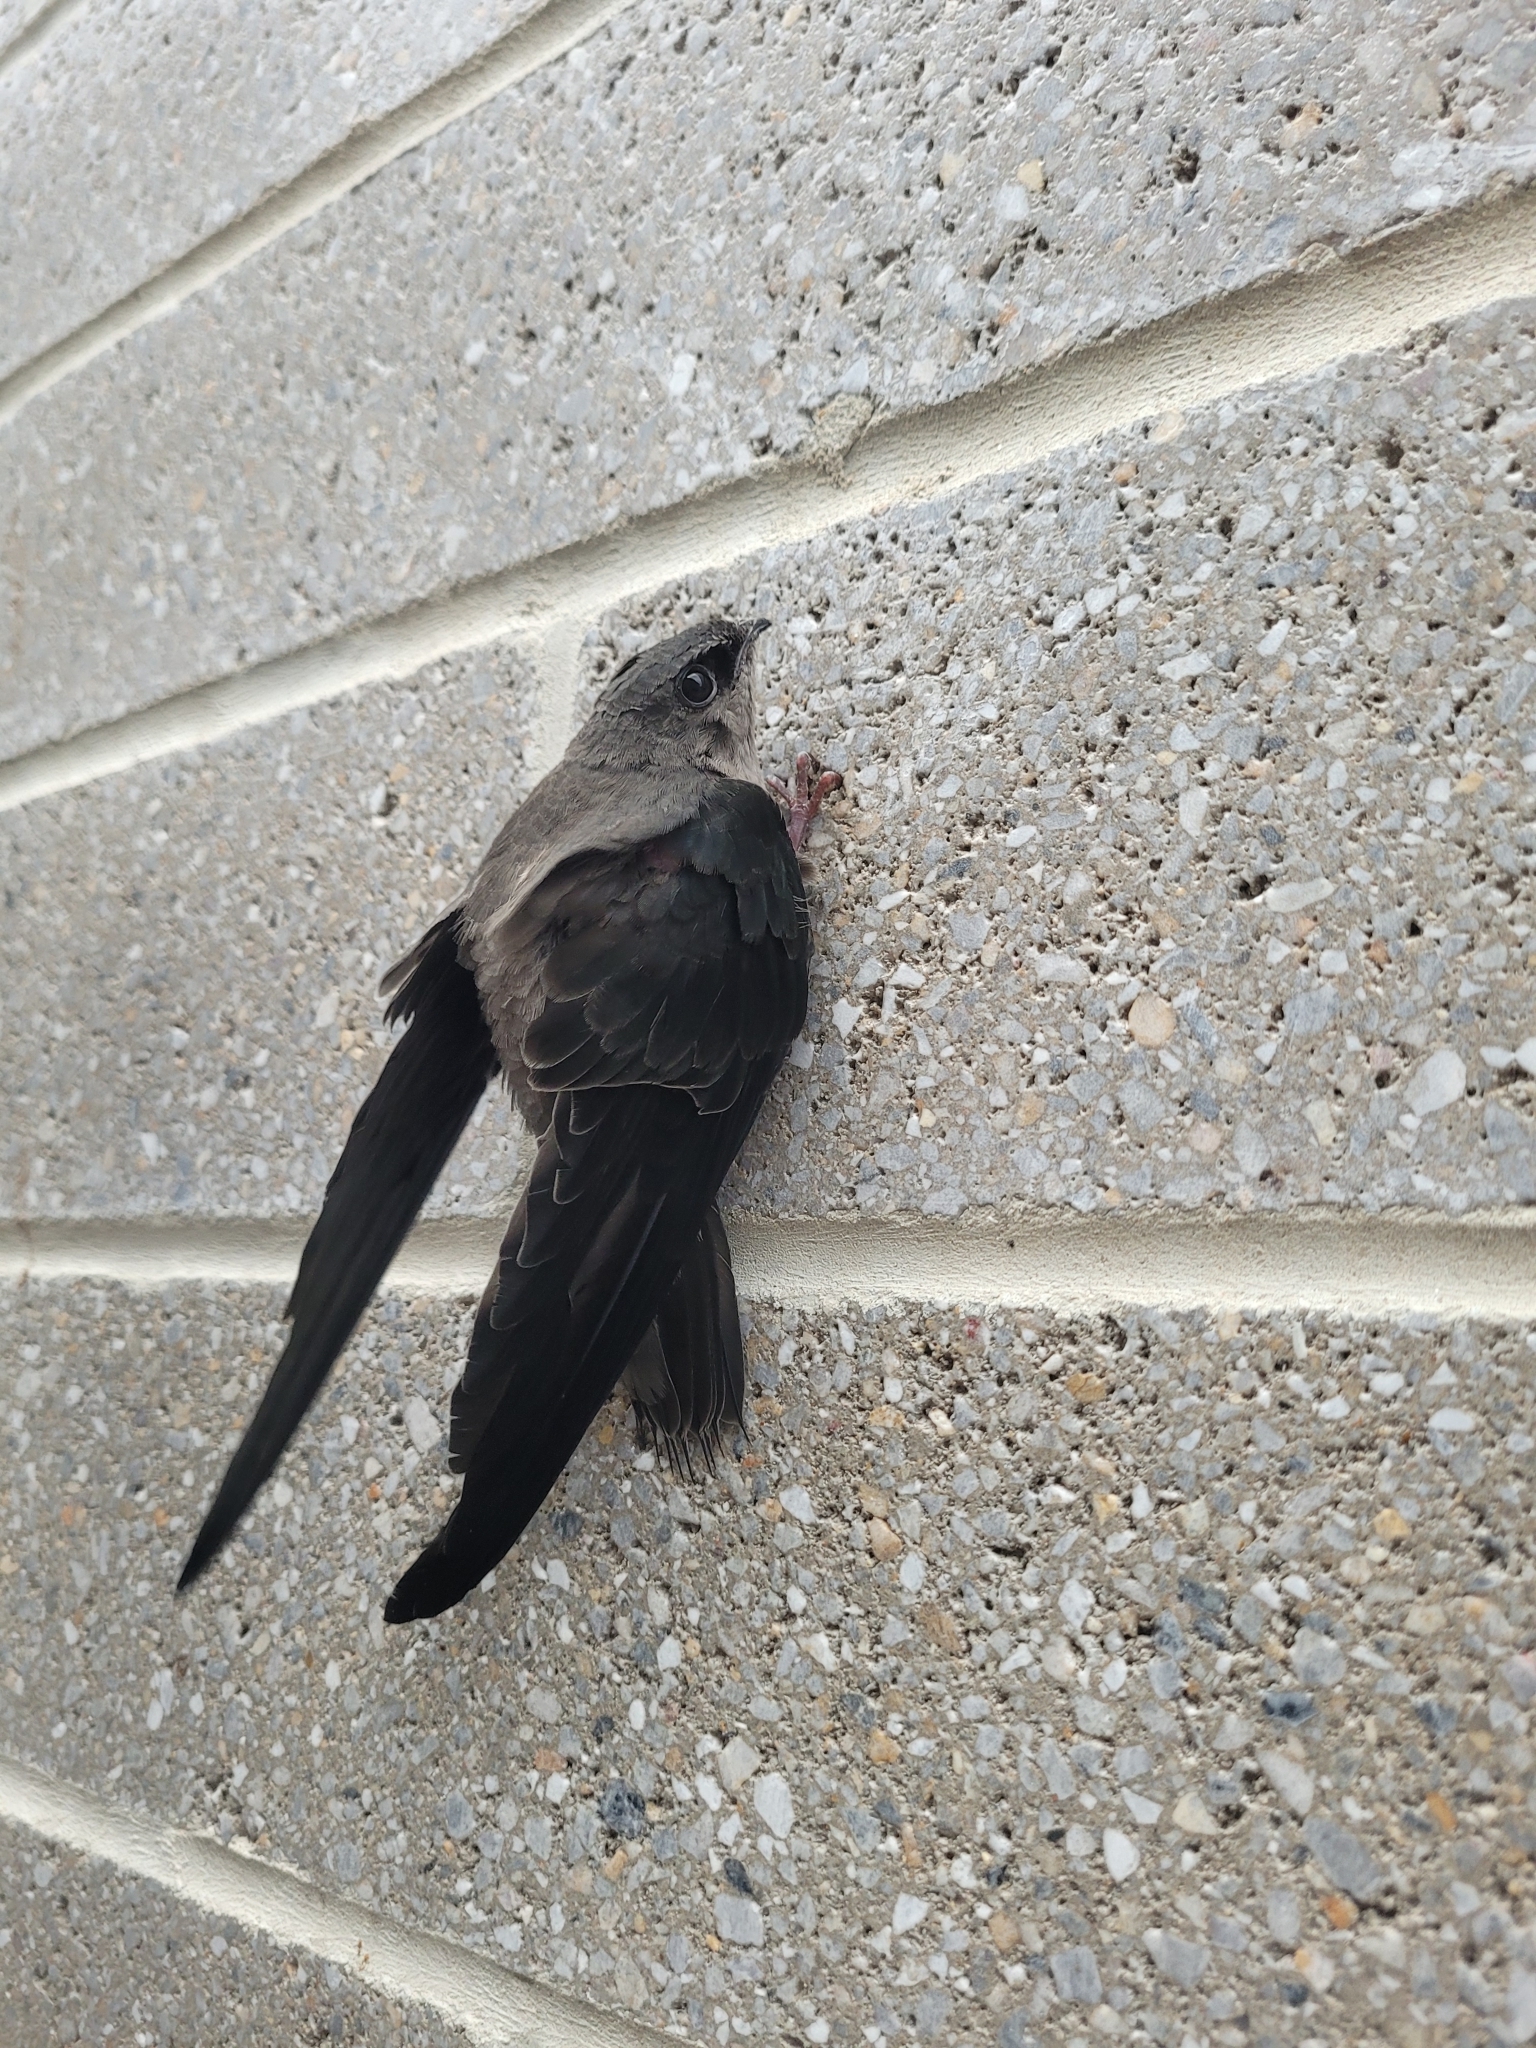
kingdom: Animalia
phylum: Chordata
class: Aves
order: Apodiformes
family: Apodidae
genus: Chaetura
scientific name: Chaetura pelagica
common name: Chimney swift
